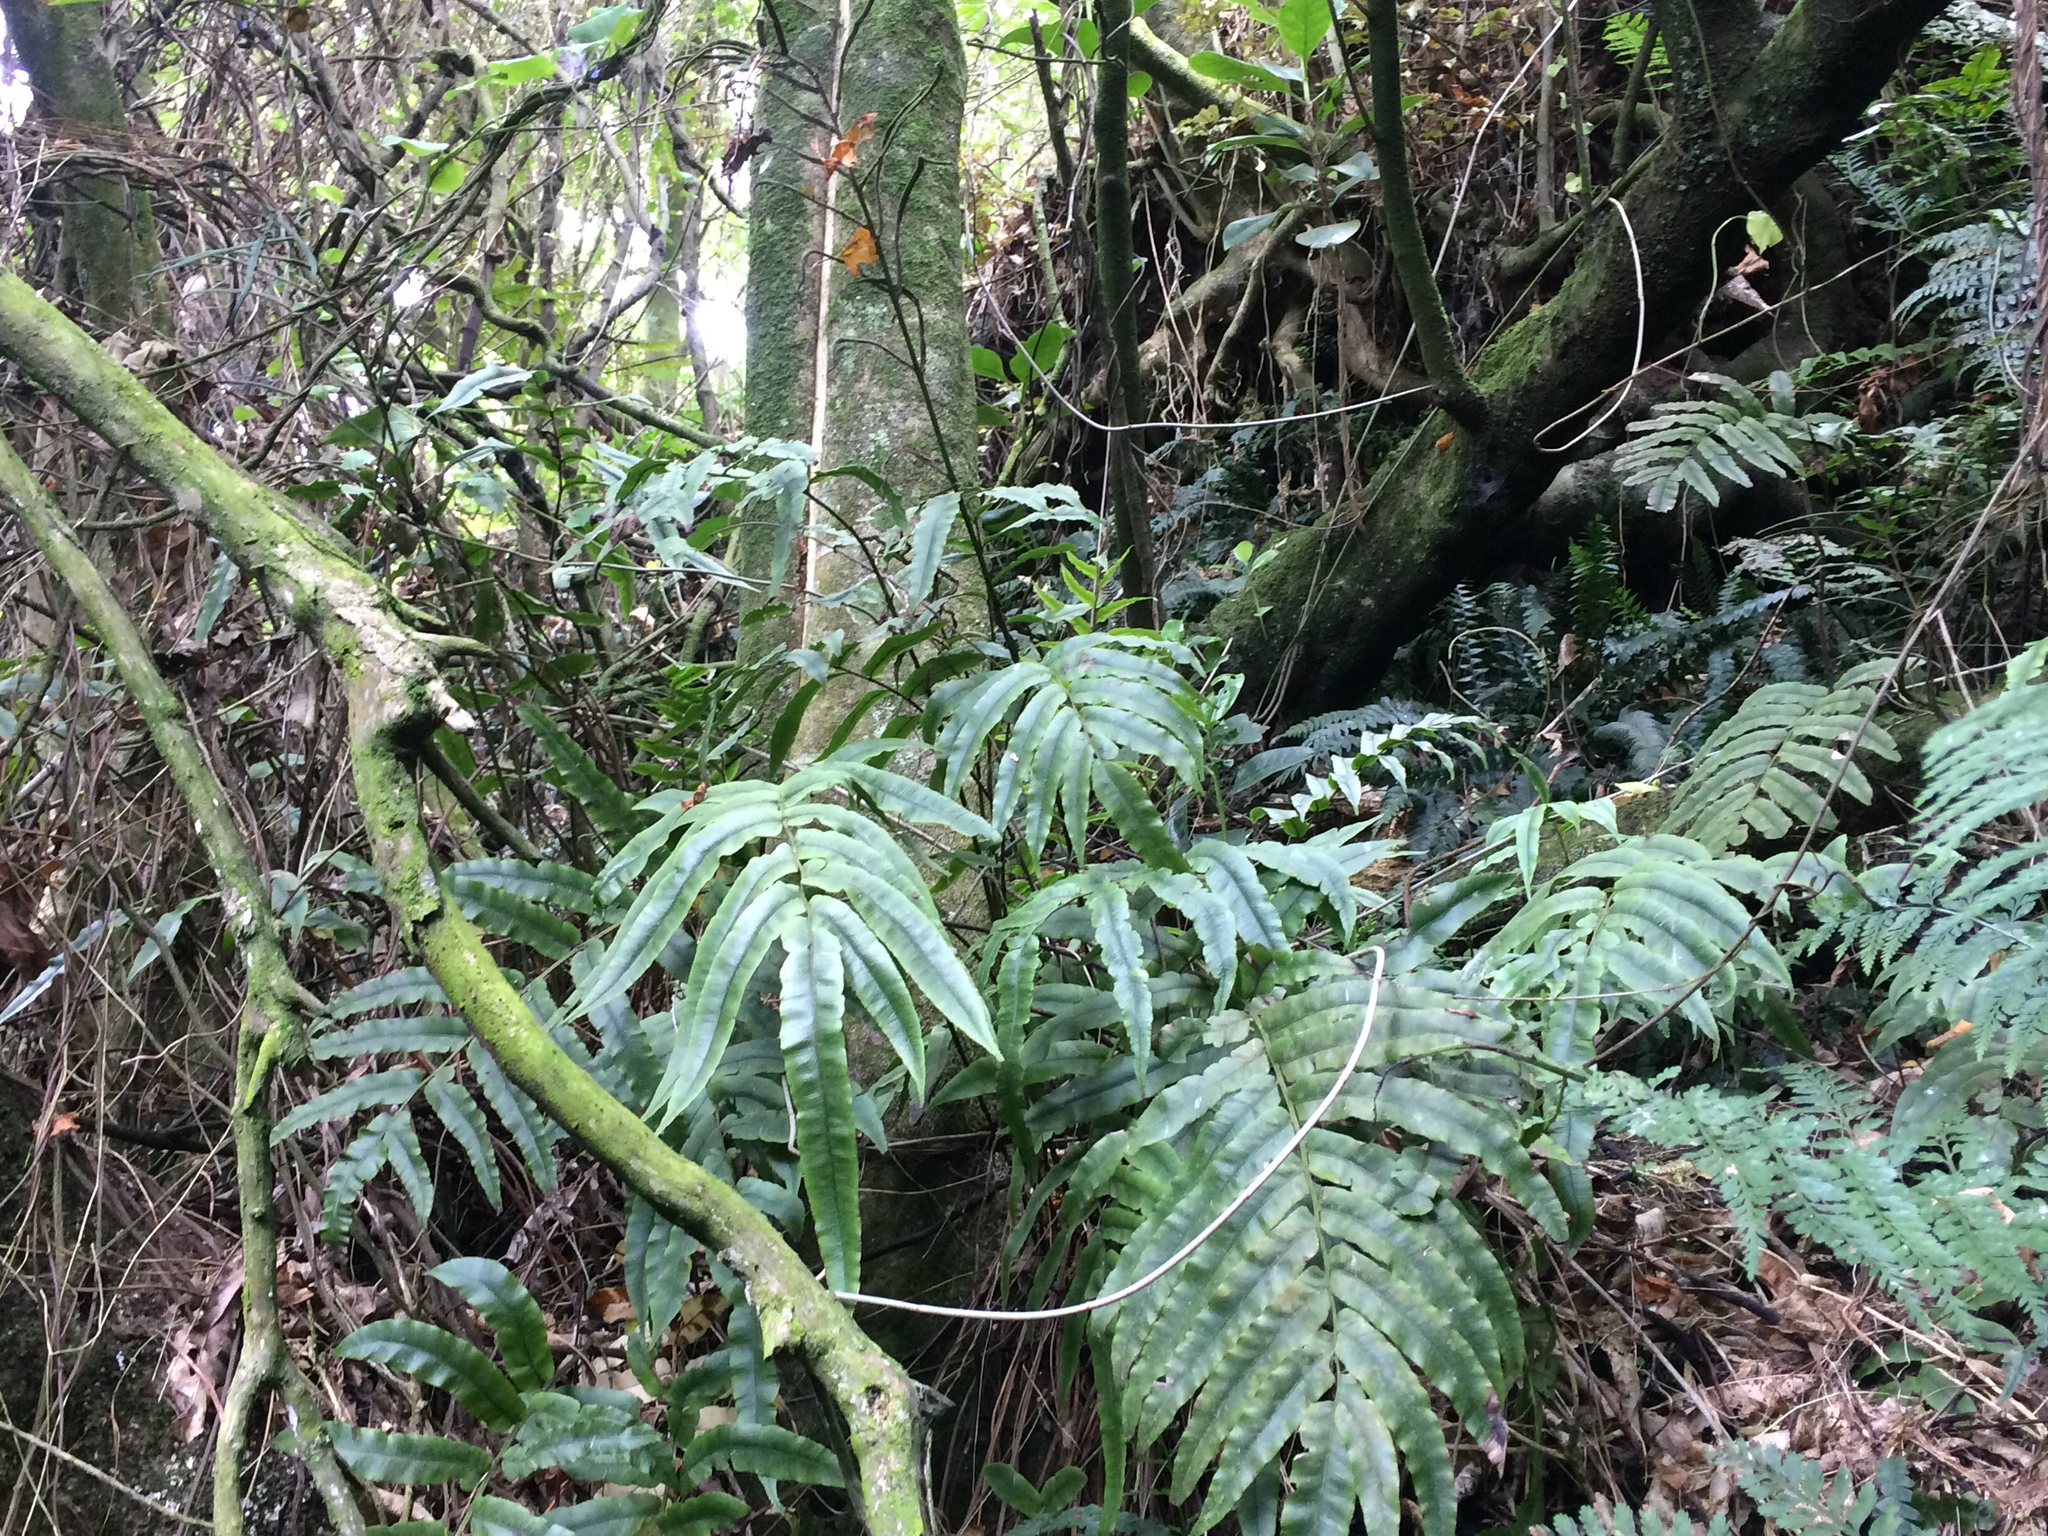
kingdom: Plantae
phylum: Tracheophyta
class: Polypodiopsida
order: Polypodiales
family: Blechnaceae
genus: Parablechnum
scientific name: Parablechnum procerum
